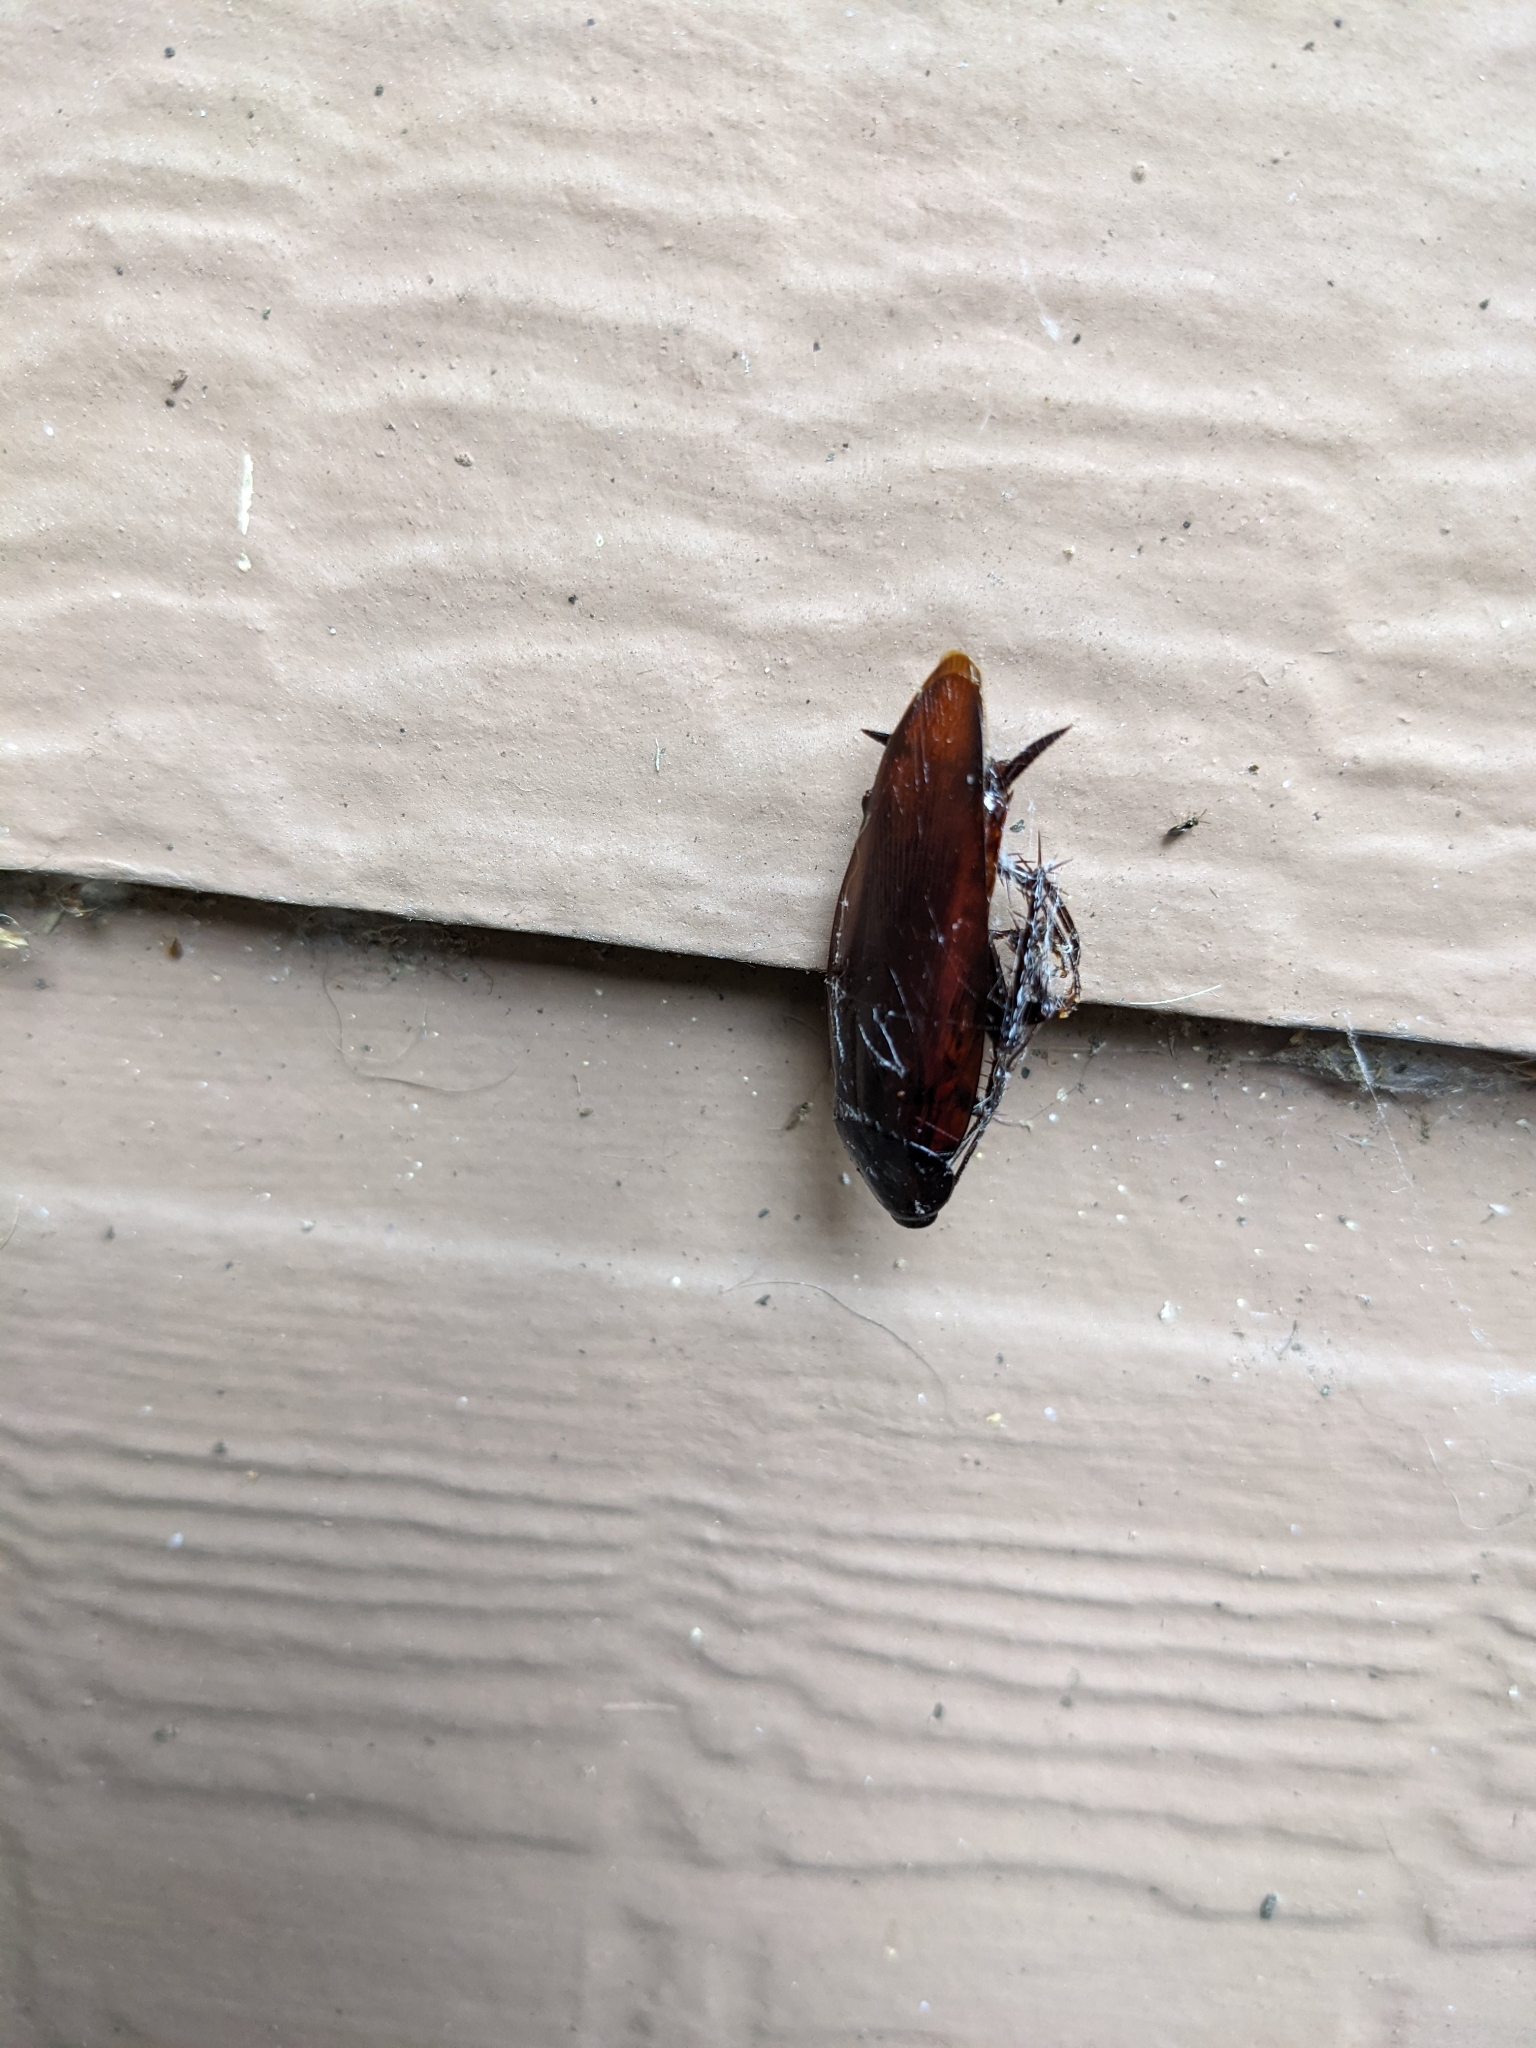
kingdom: Animalia
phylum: Arthropoda
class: Insecta
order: Blattodea
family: Blattidae
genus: Periplaneta
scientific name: Periplaneta fuliginosa
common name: Smokeybrown cockroad
